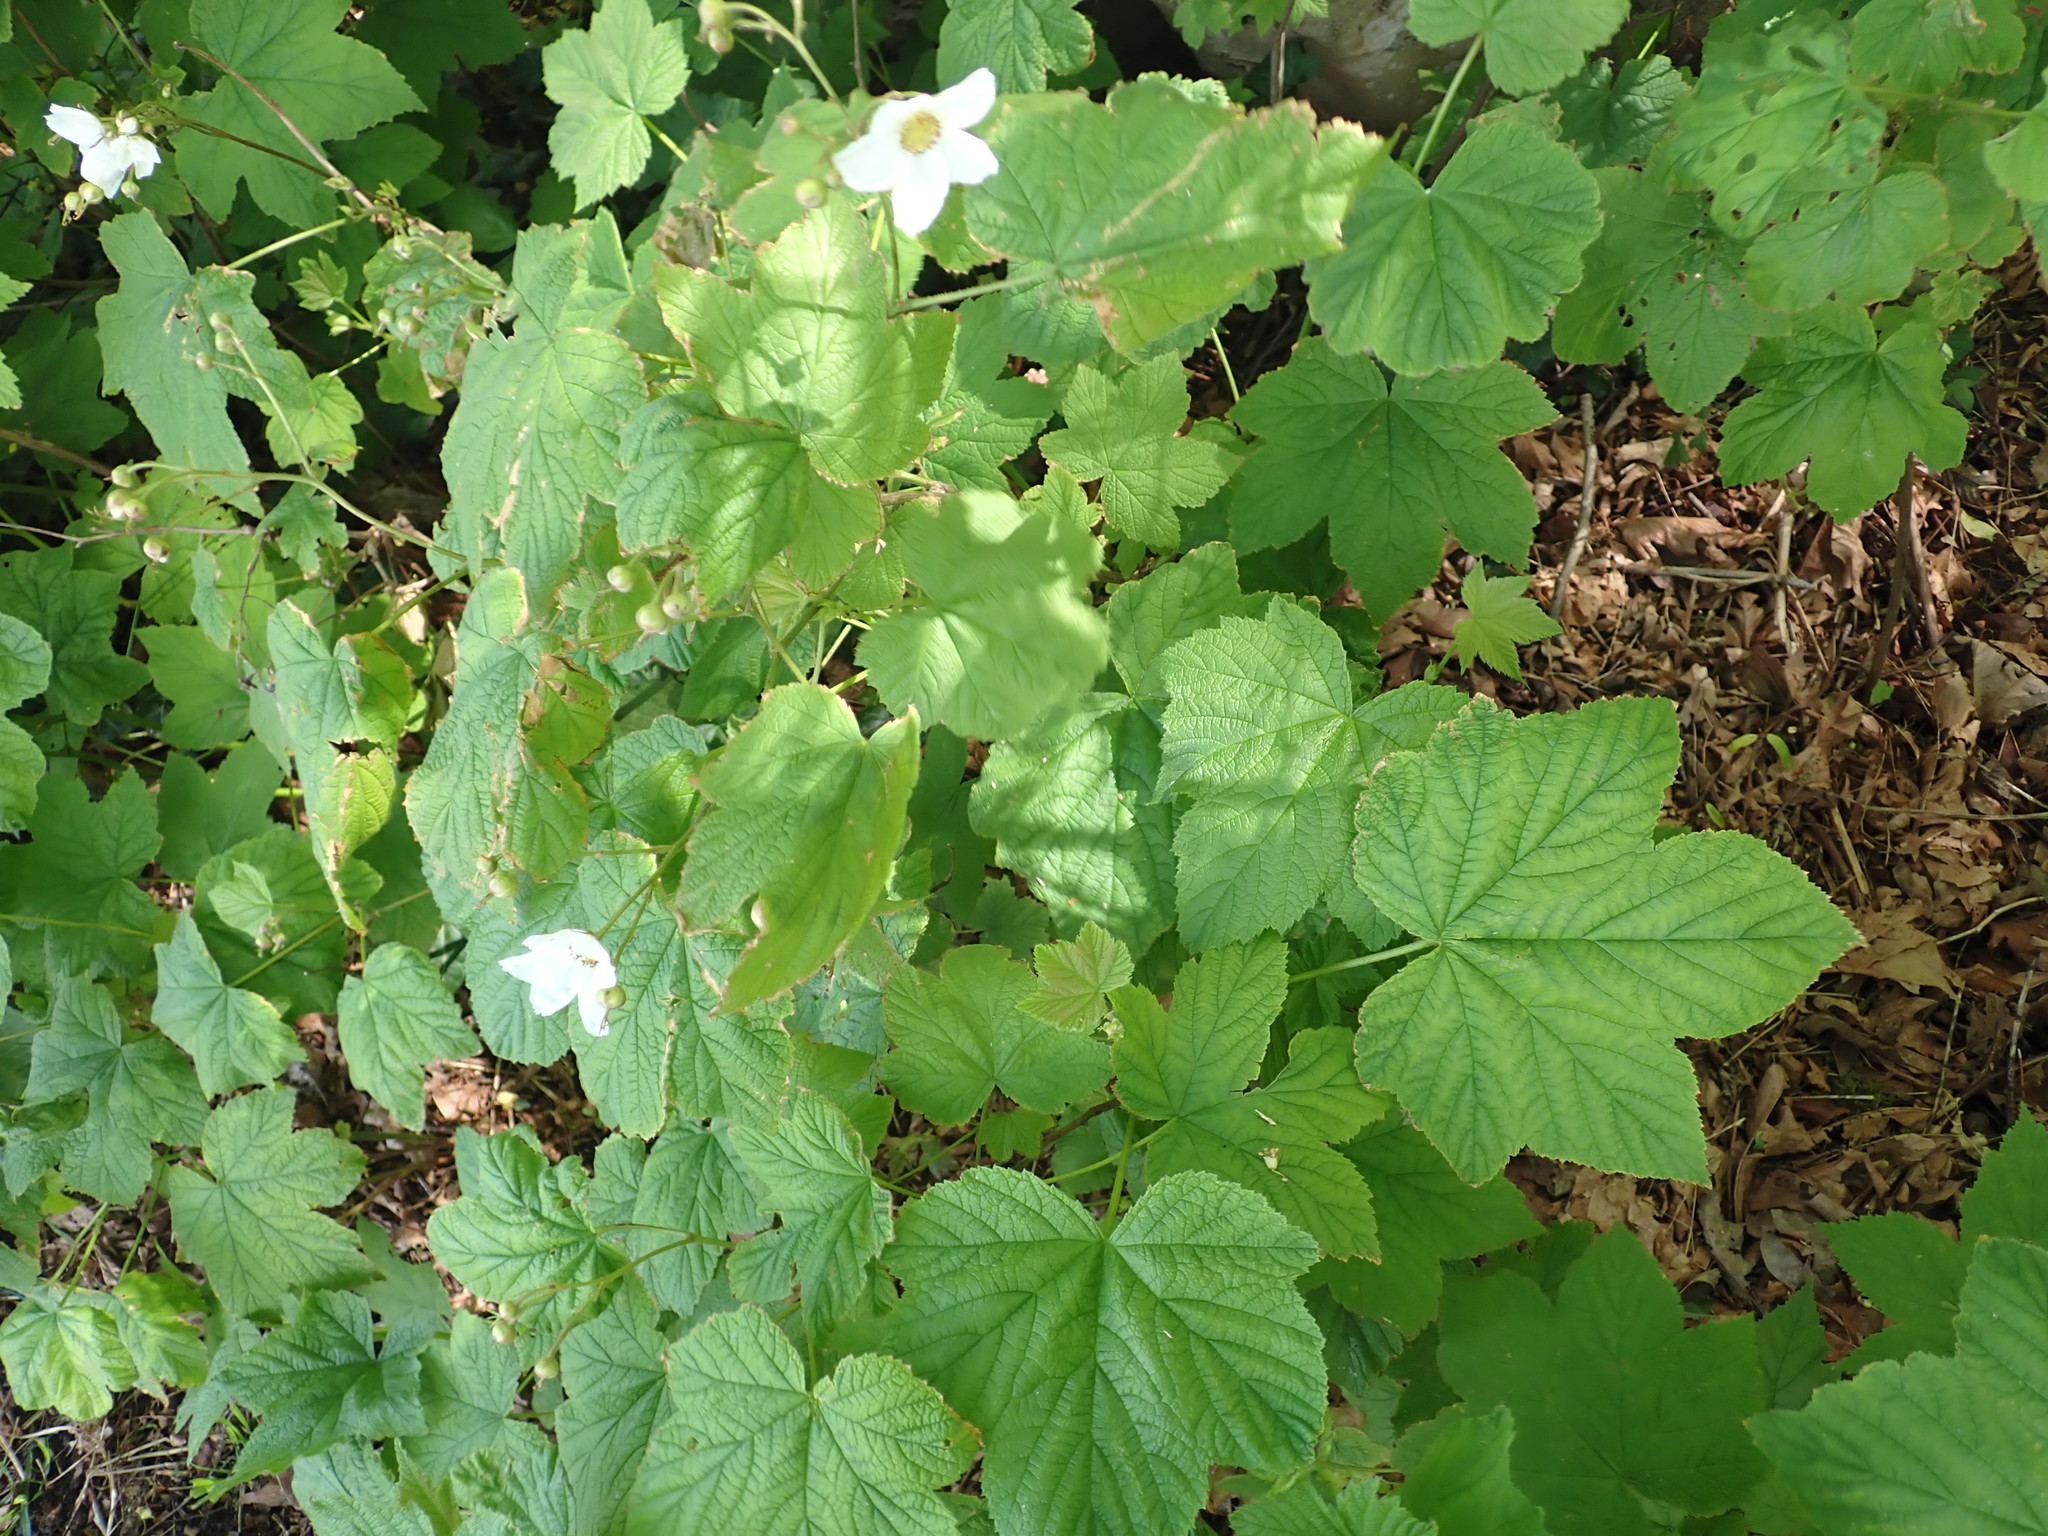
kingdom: Plantae
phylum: Tracheophyta
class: Magnoliopsida
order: Rosales
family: Rosaceae
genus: Rubus
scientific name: Rubus parviflorus
